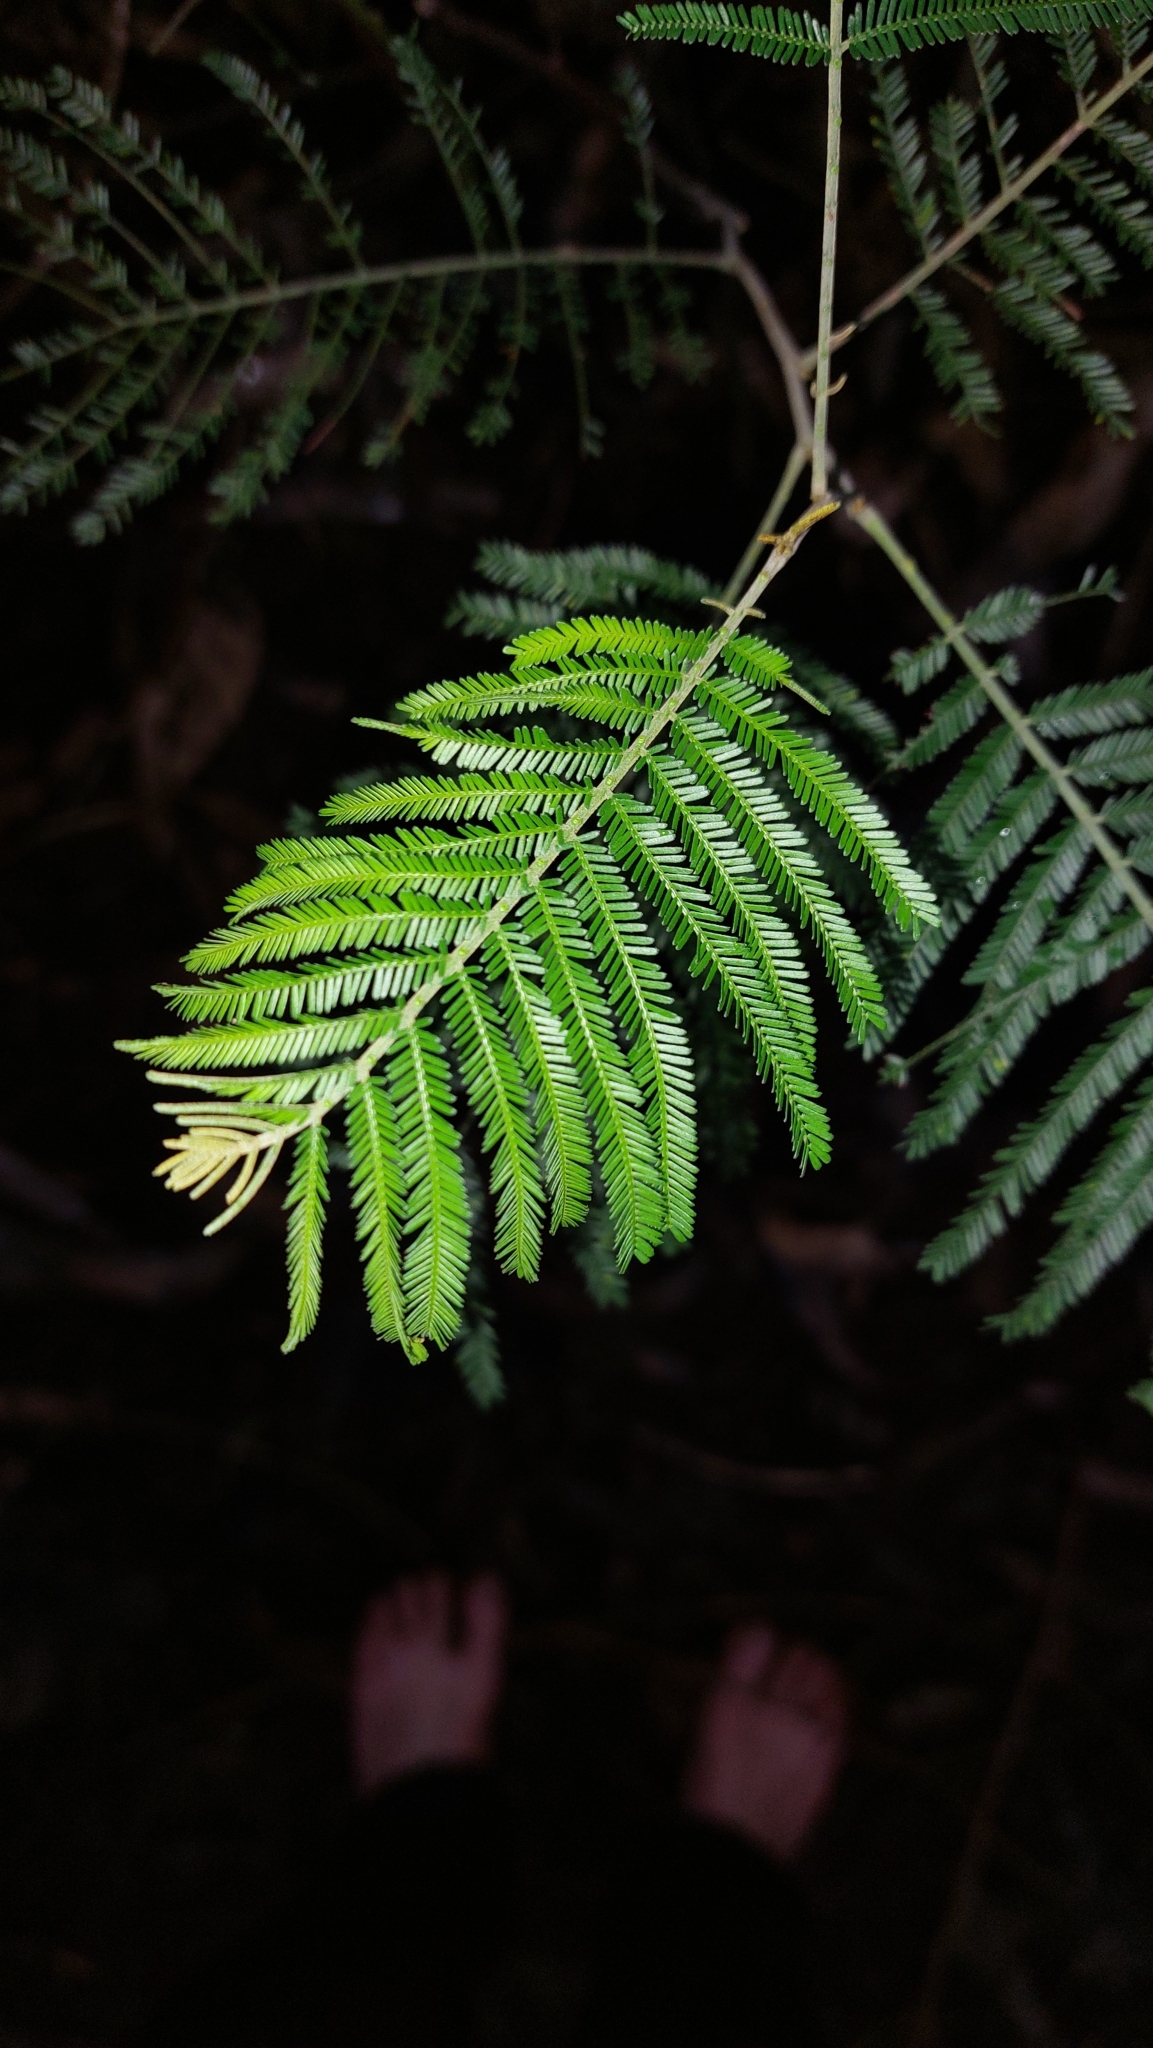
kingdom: Plantae
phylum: Tracheophyta
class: Magnoliopsida
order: Fabales
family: Fabaceae
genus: Acacia
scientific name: Acacia mearnsii
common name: Black wattle
